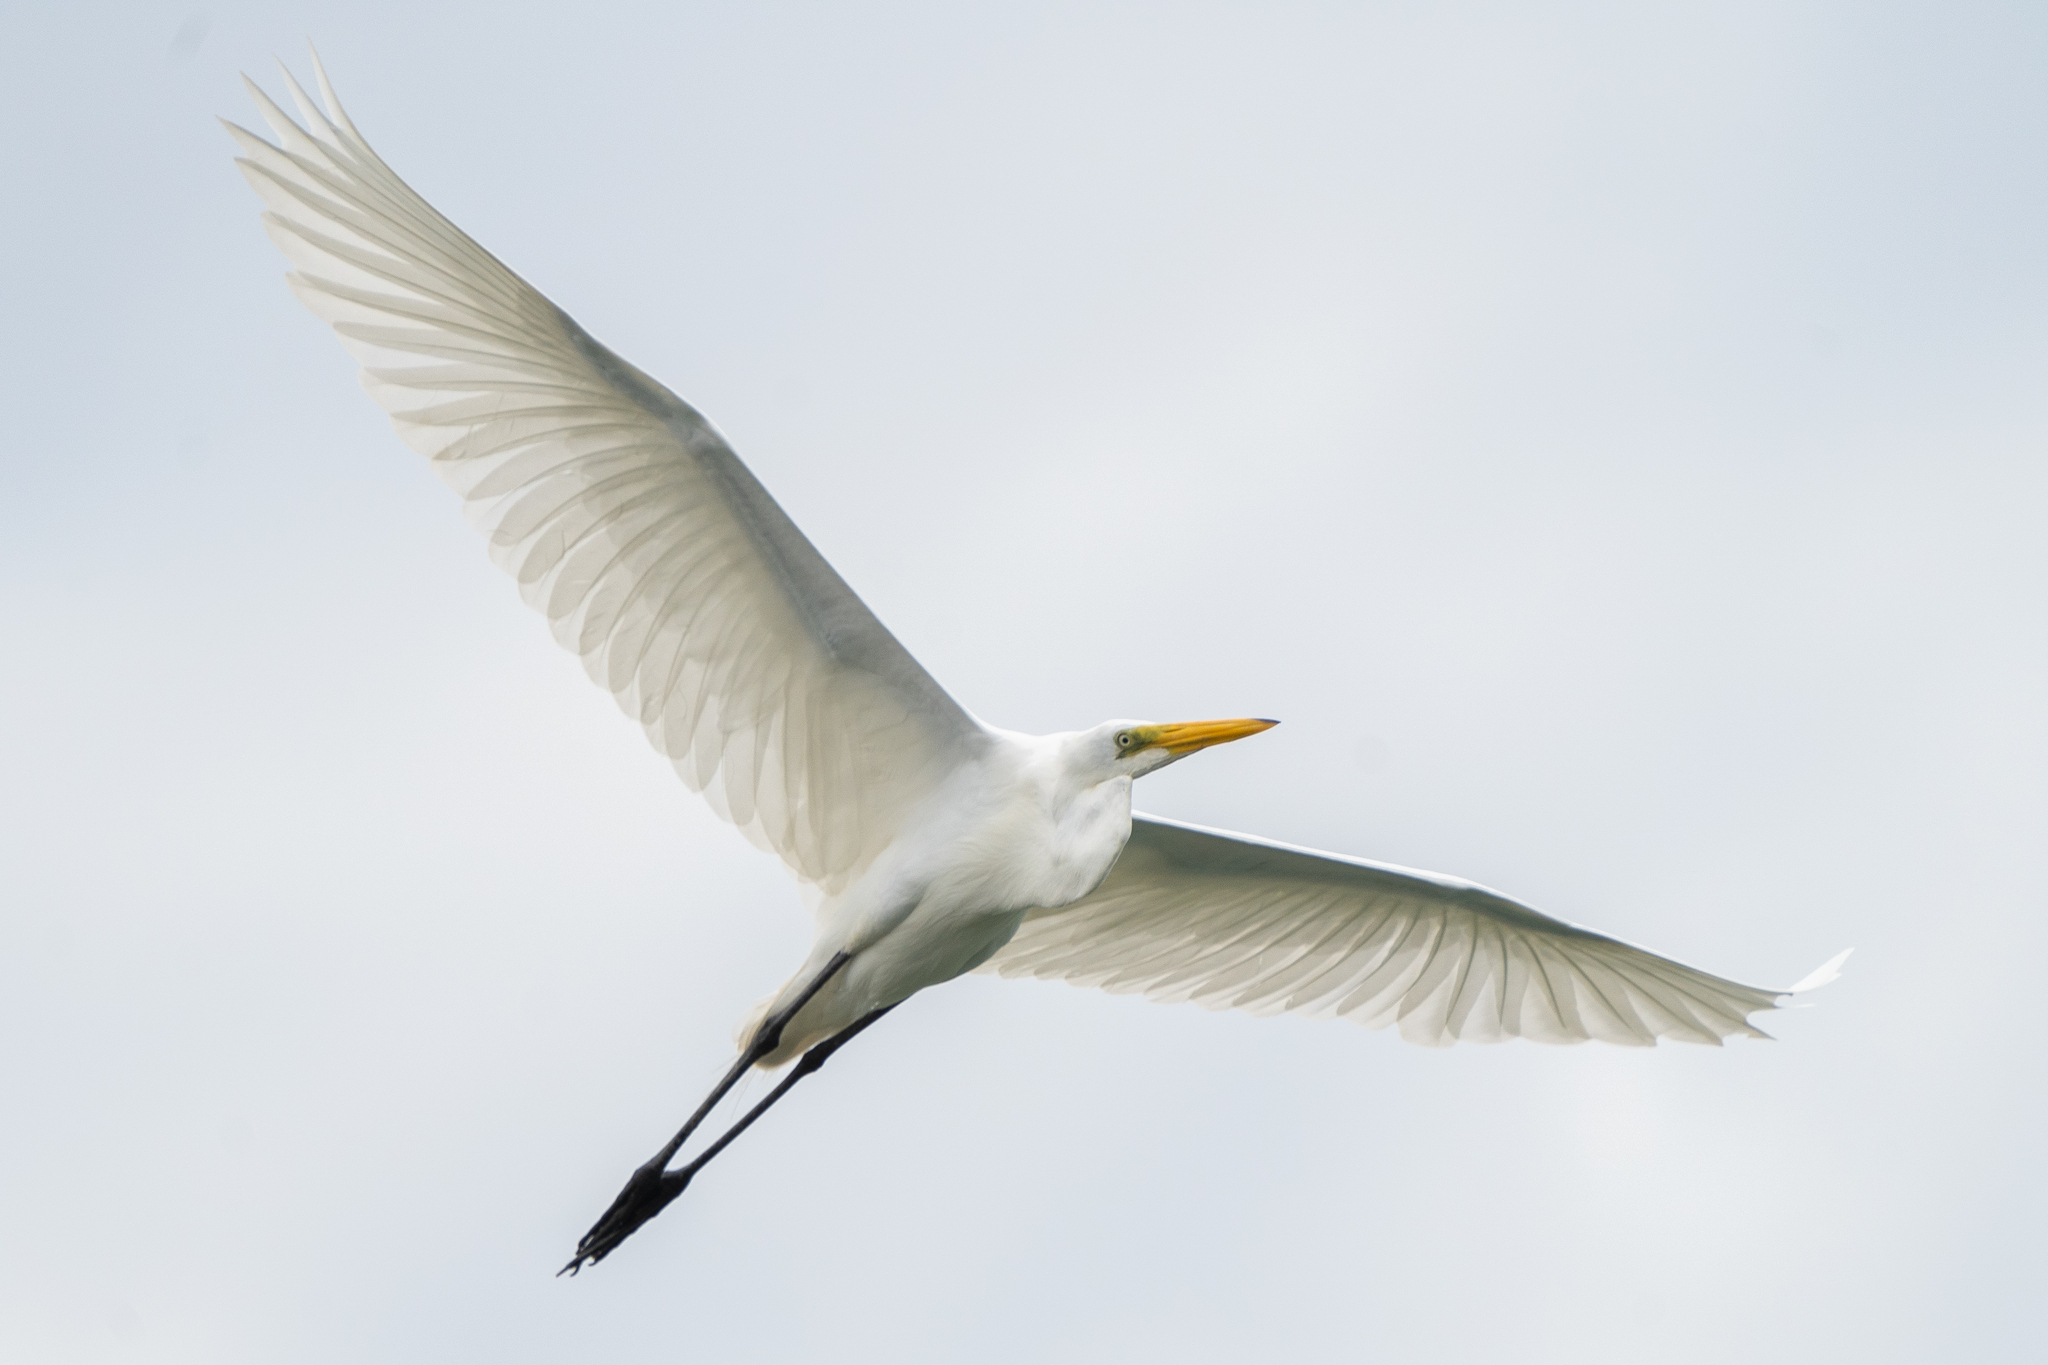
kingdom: Animalia
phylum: Chordata
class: Aves
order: Pelecaniformes
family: Ardeidae
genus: Ardea
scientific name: Ardea alba
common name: Great egret
